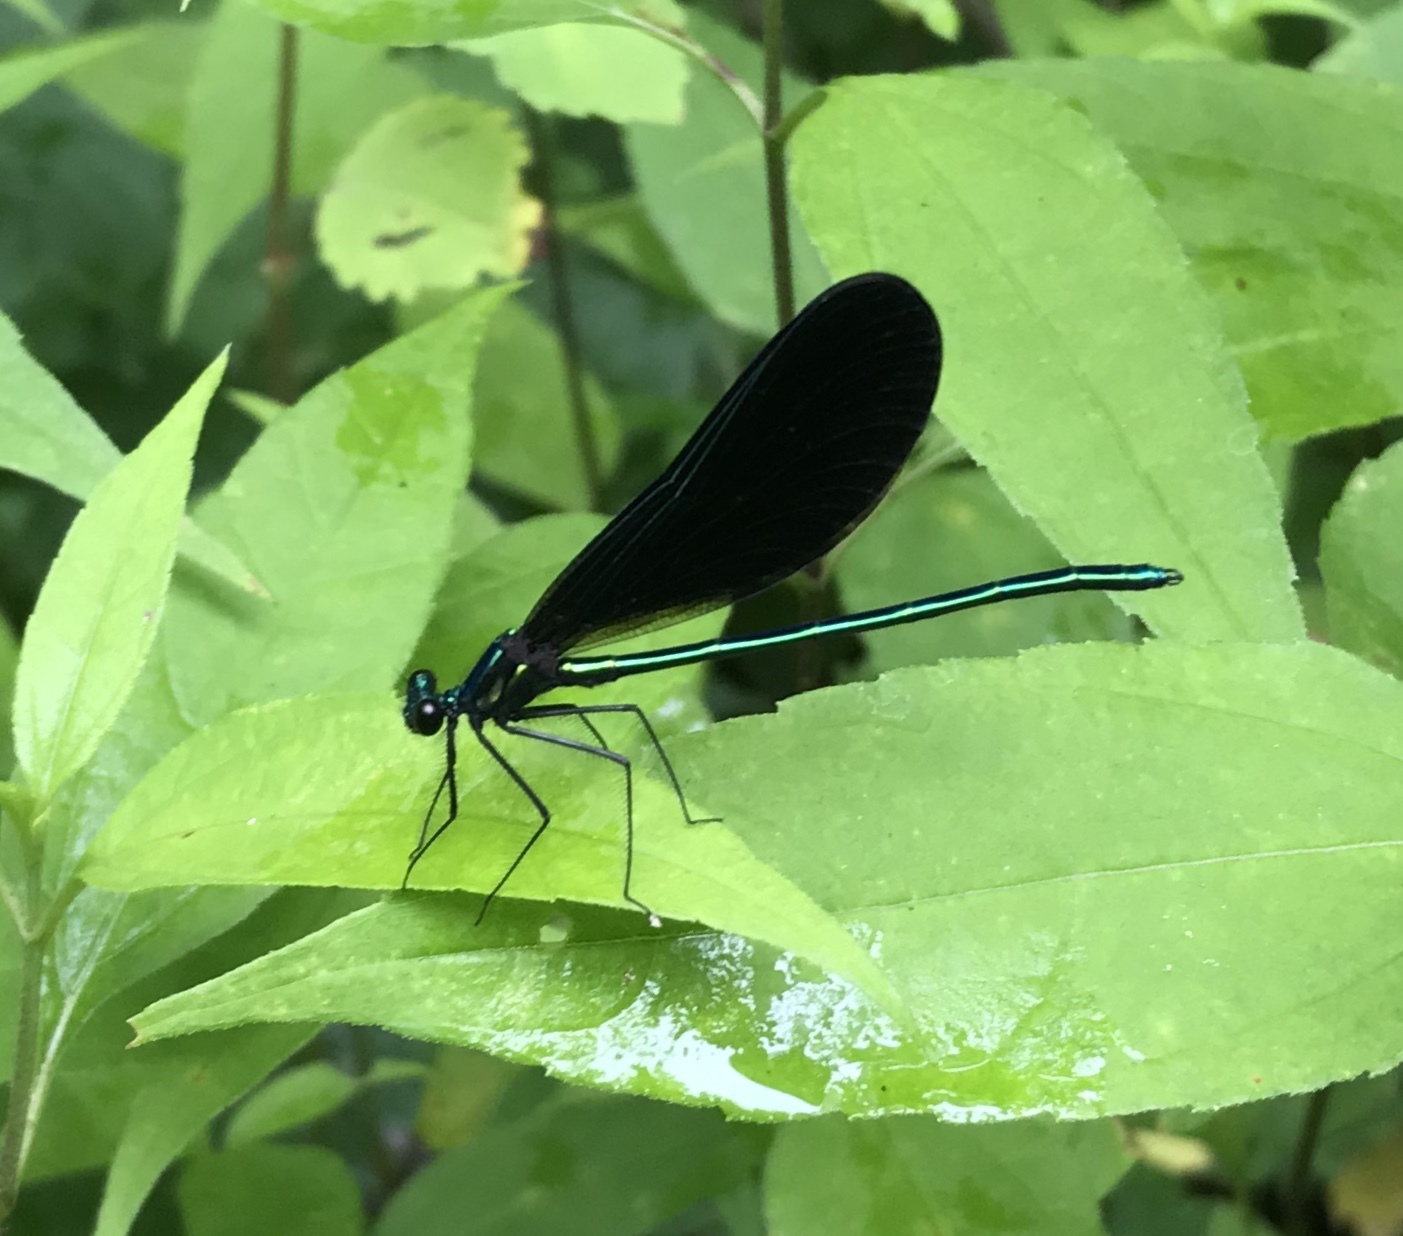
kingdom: Animalia
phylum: Arthropoda
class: Insecta
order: Odonata
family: Calopterygidae
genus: Calopteryx
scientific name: Calopteryx maculata
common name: Ebony jewelwing
